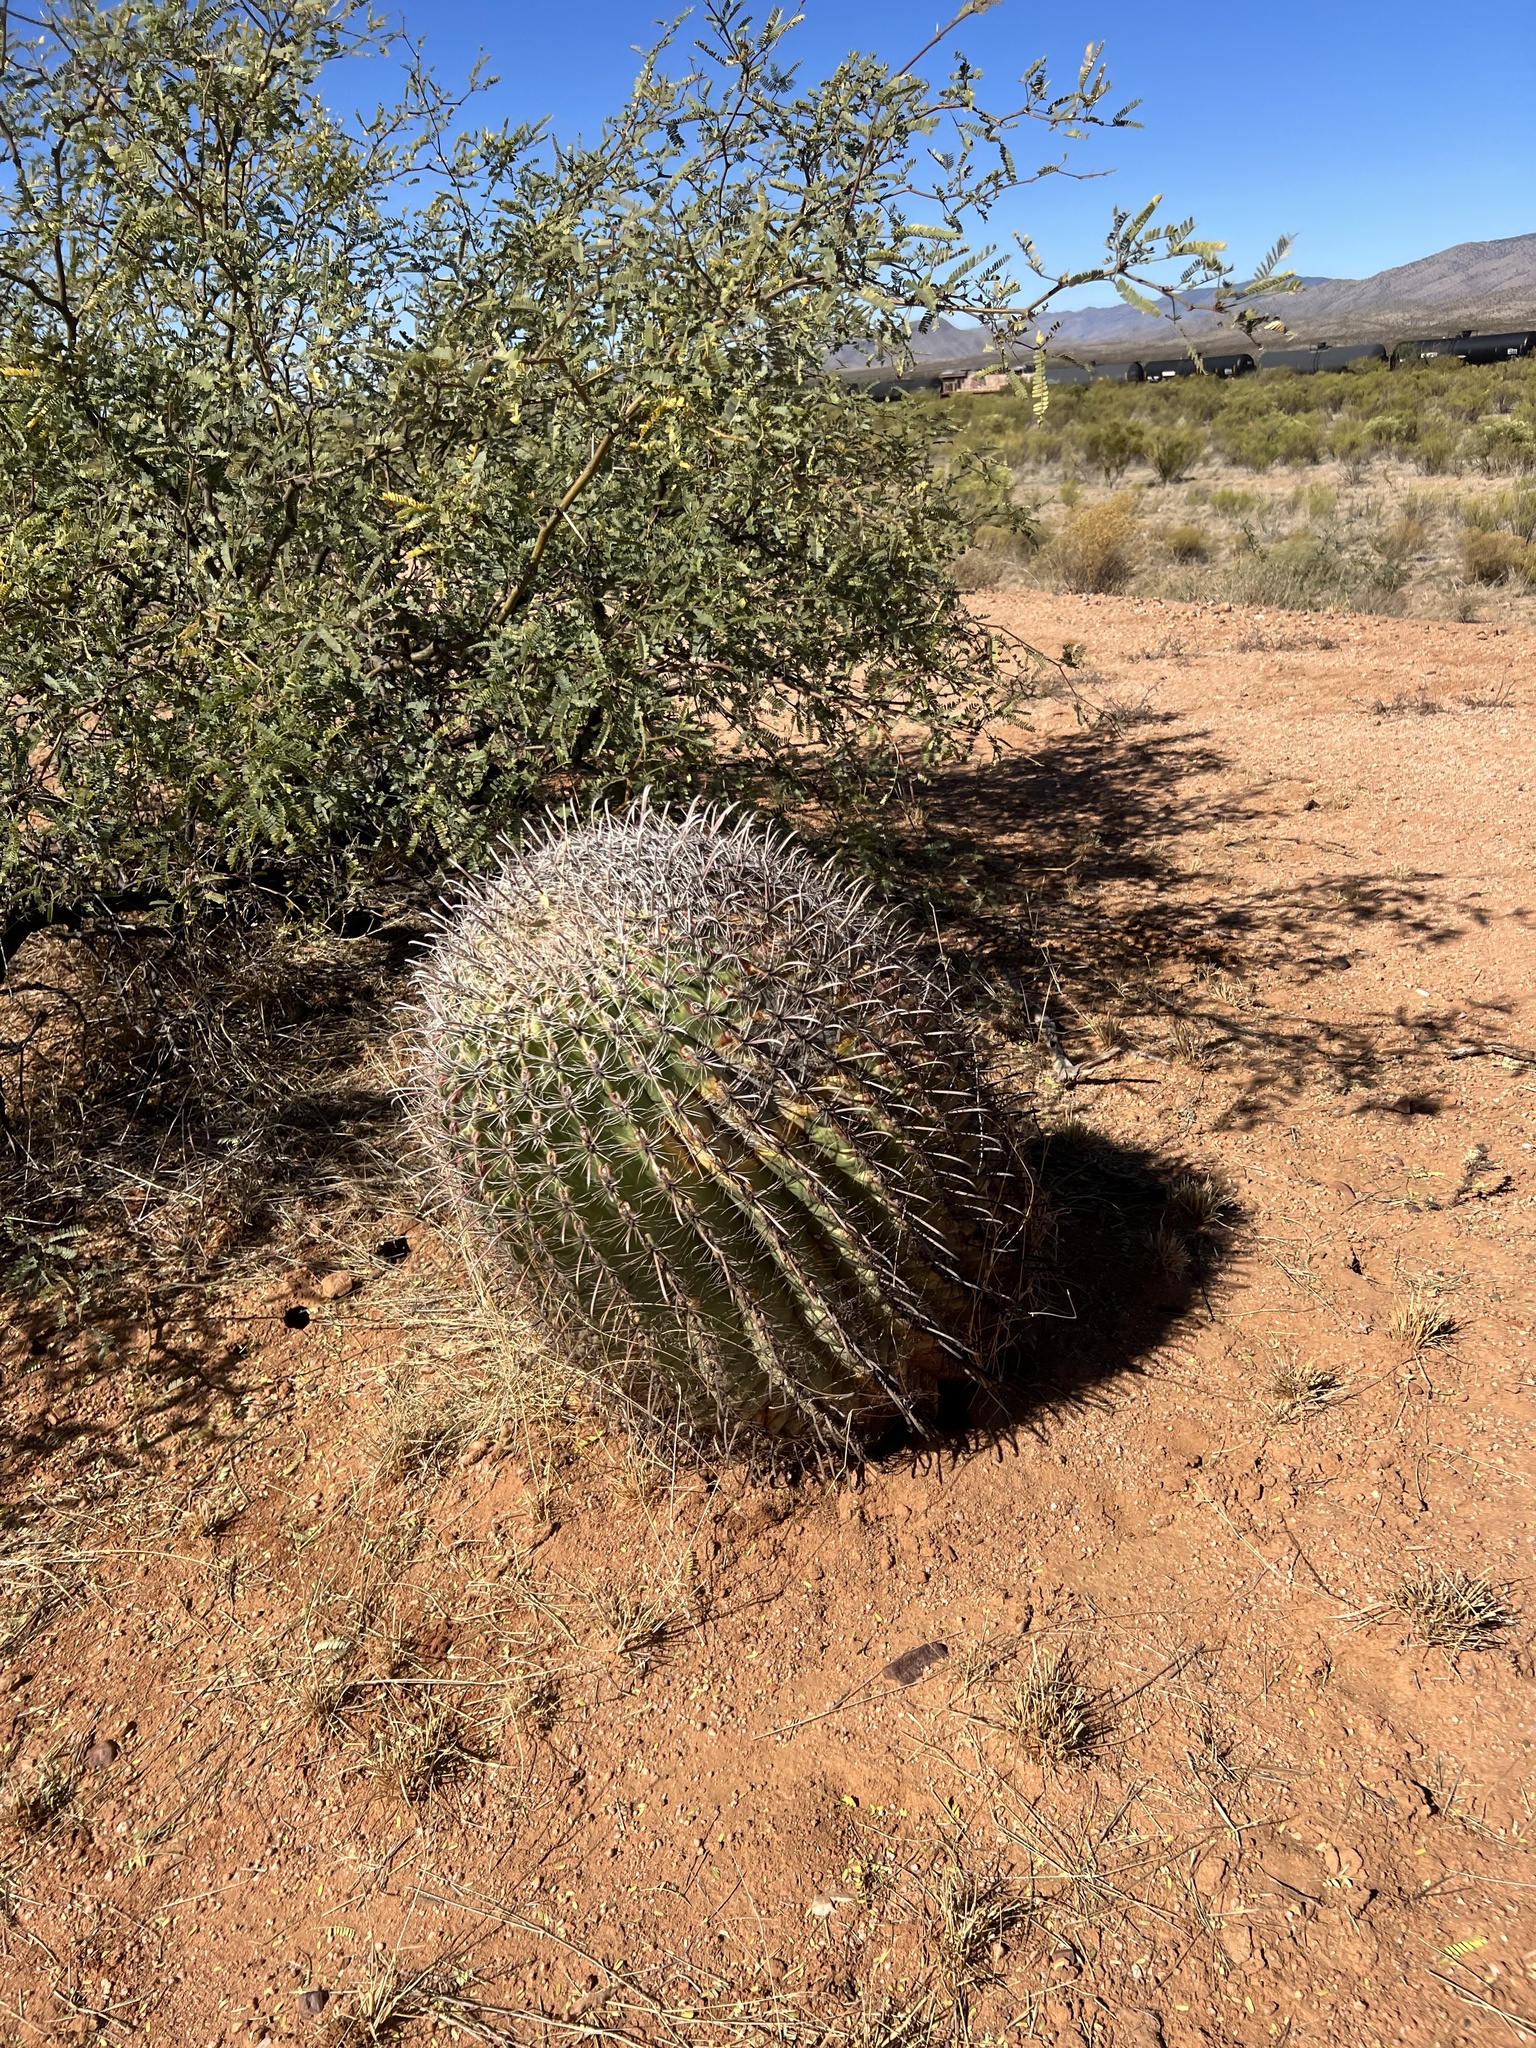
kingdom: Plantae
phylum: Tracheophyta
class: Magnoliopsida
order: Caryophyllales
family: Cactaceae
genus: Ferocactus
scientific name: Ferocactus wislizeni
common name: Candy barrel cactus
